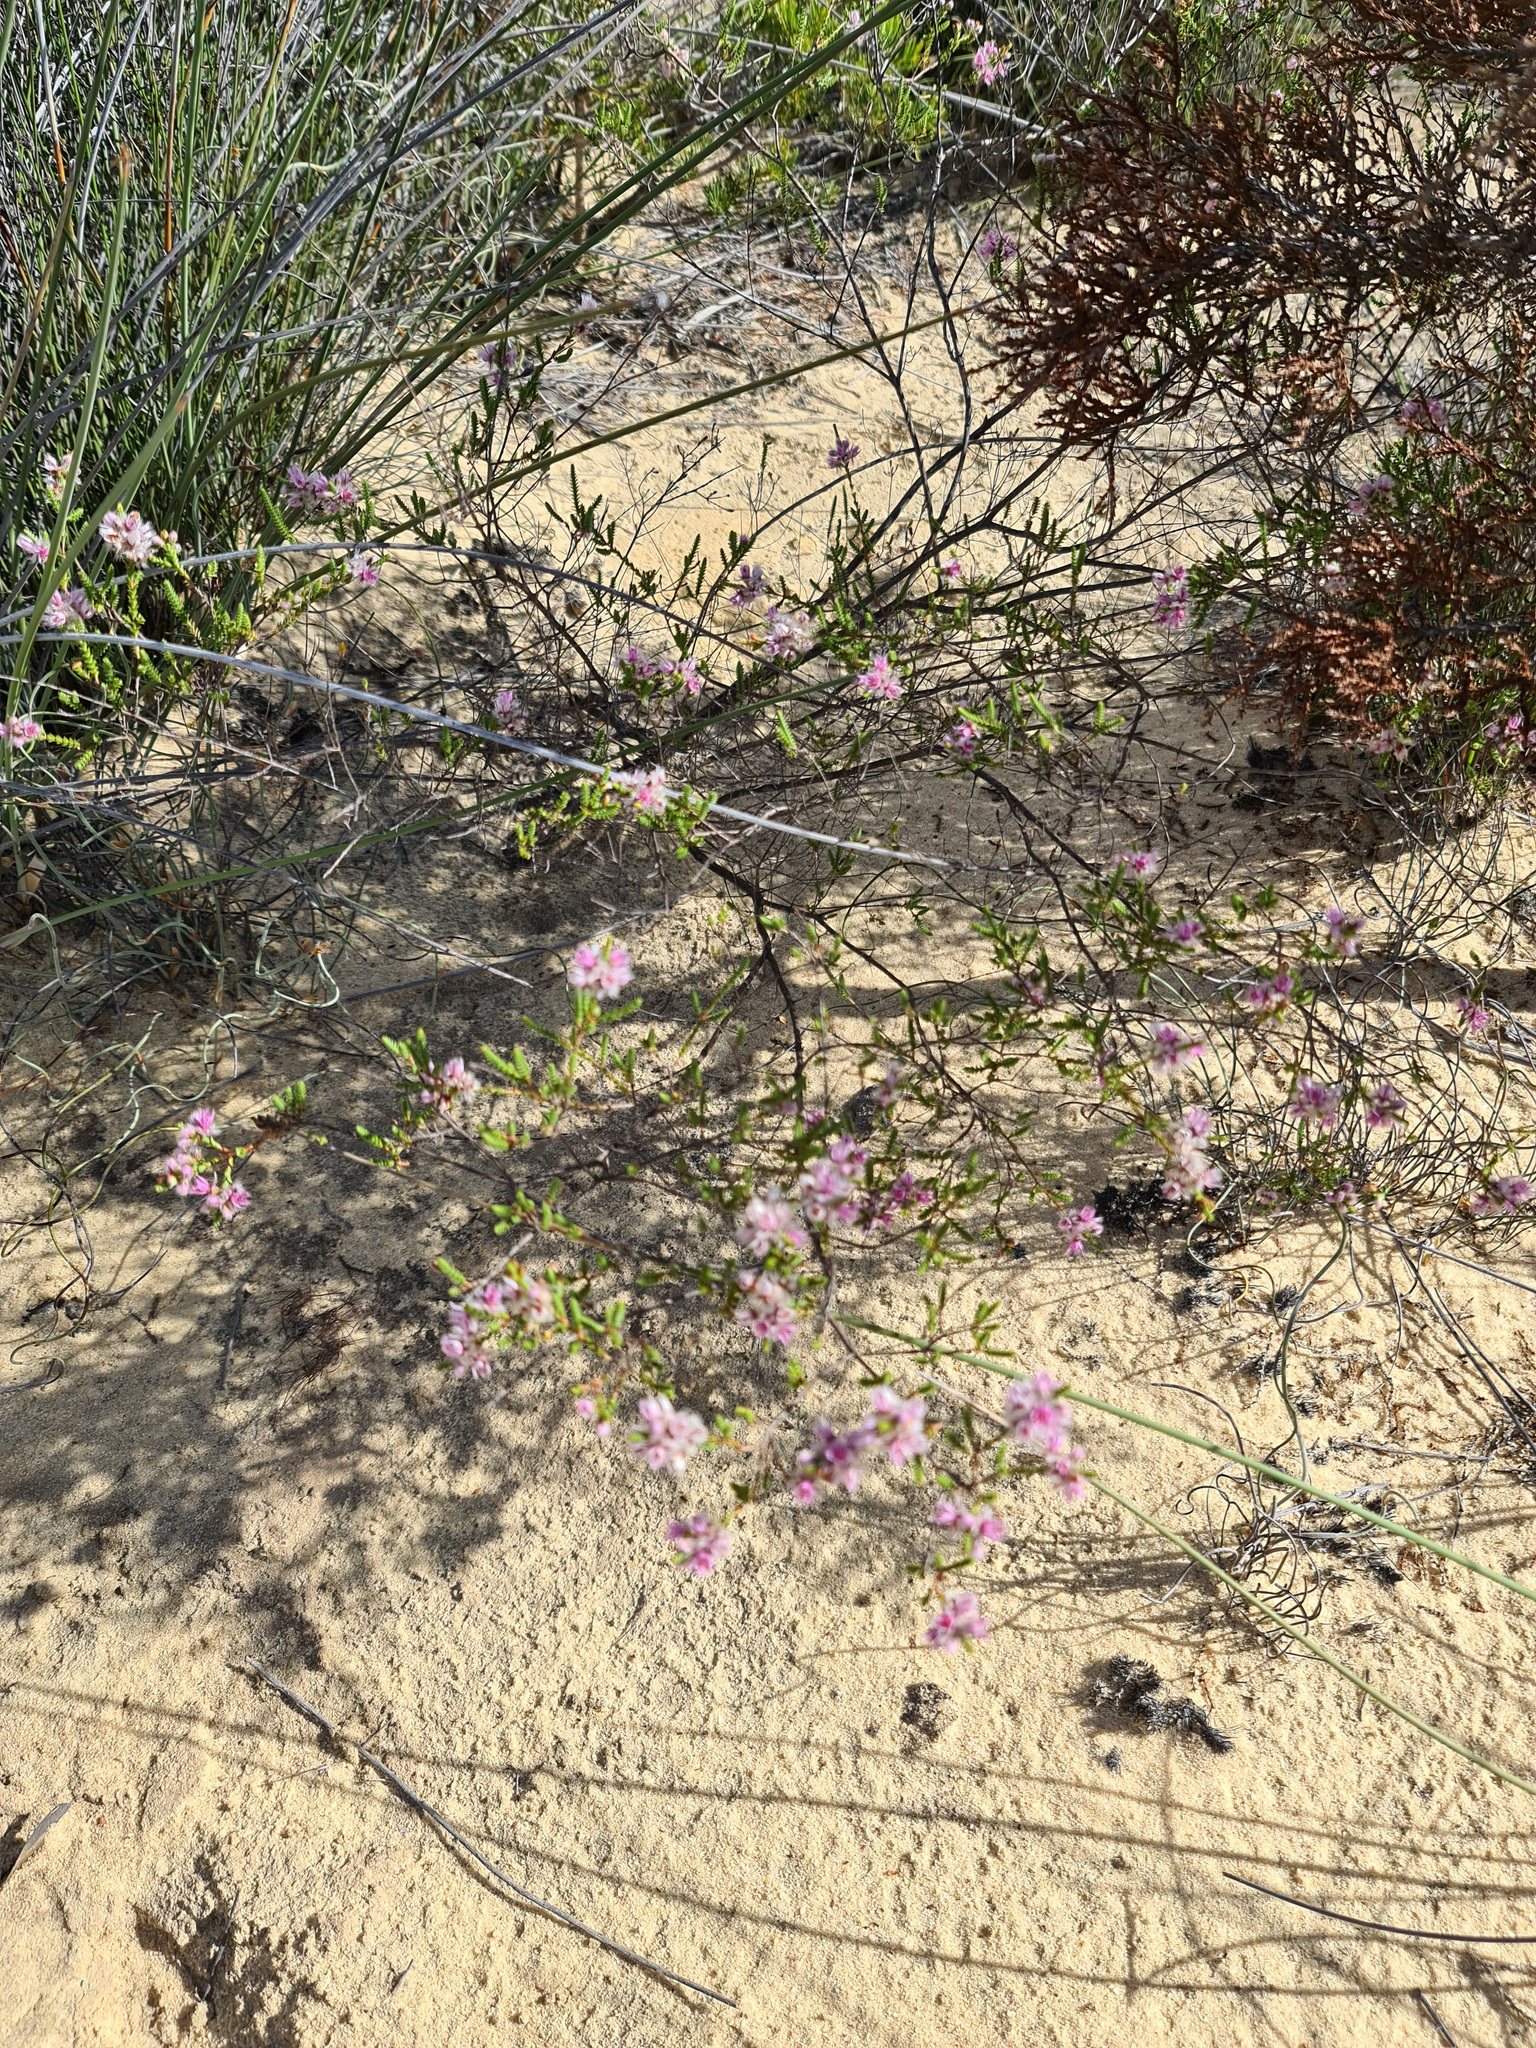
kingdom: Plantae
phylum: Tracheophyta
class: Magnoliopsida
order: Myrtales
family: Myrtaceae
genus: Verticordia
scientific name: Verticordia centipeda
